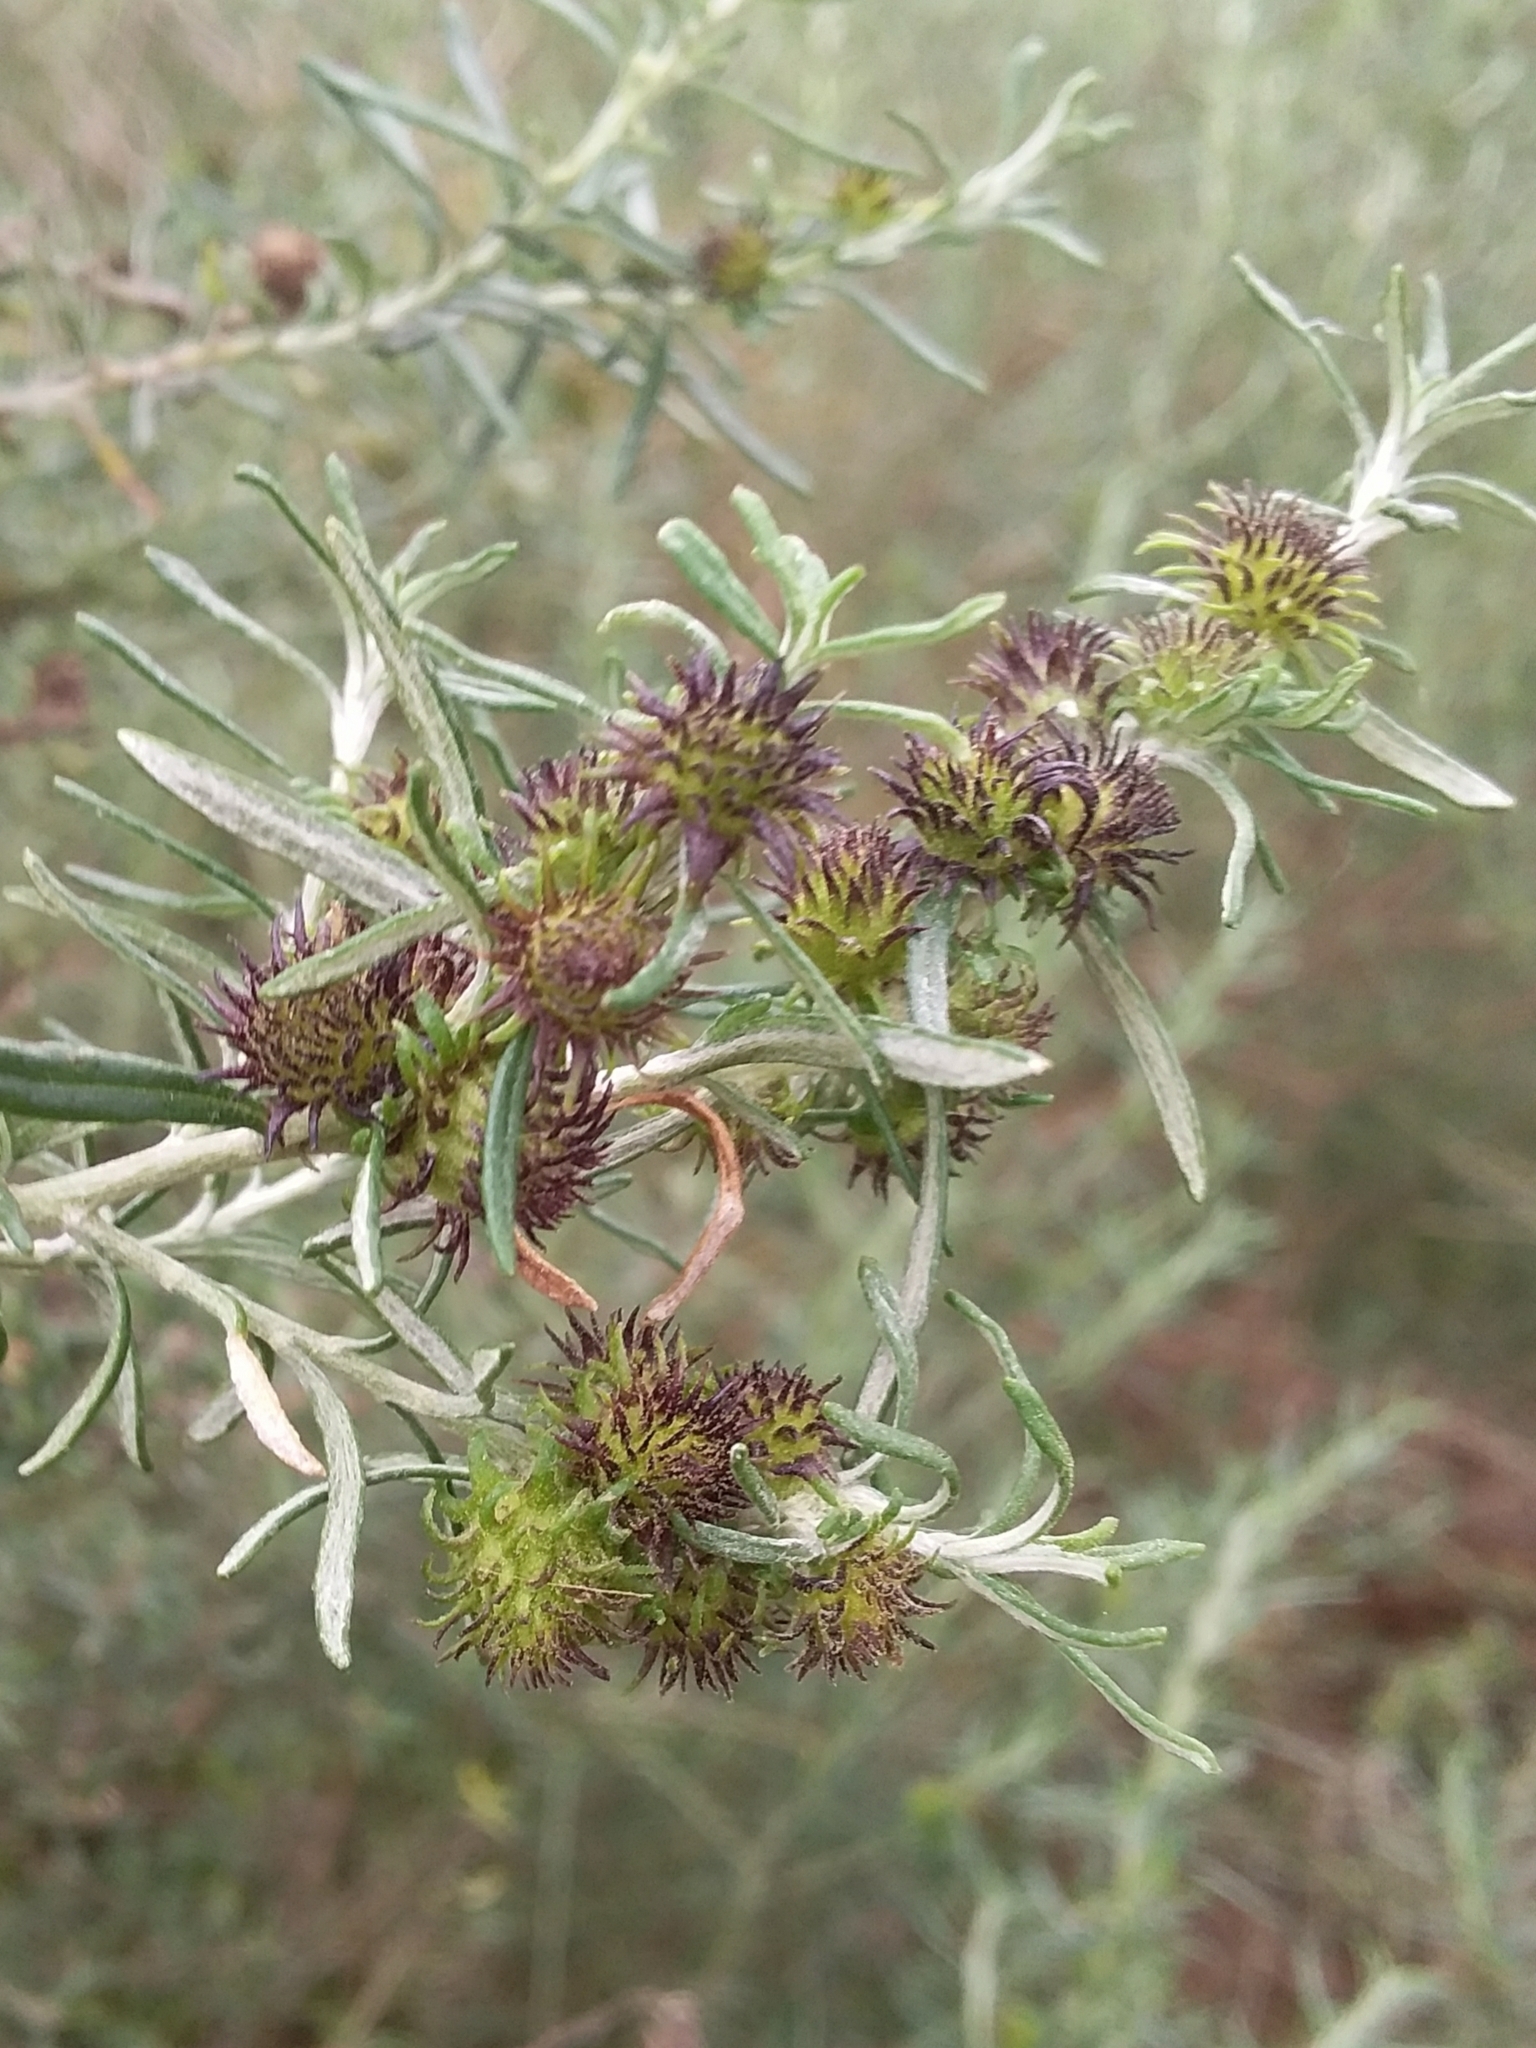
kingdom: Animalia
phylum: Arthropoda
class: Insecta
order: Diptera
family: Cecidomyiidae
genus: Trigonomyia
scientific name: Trigonomyia ananas
